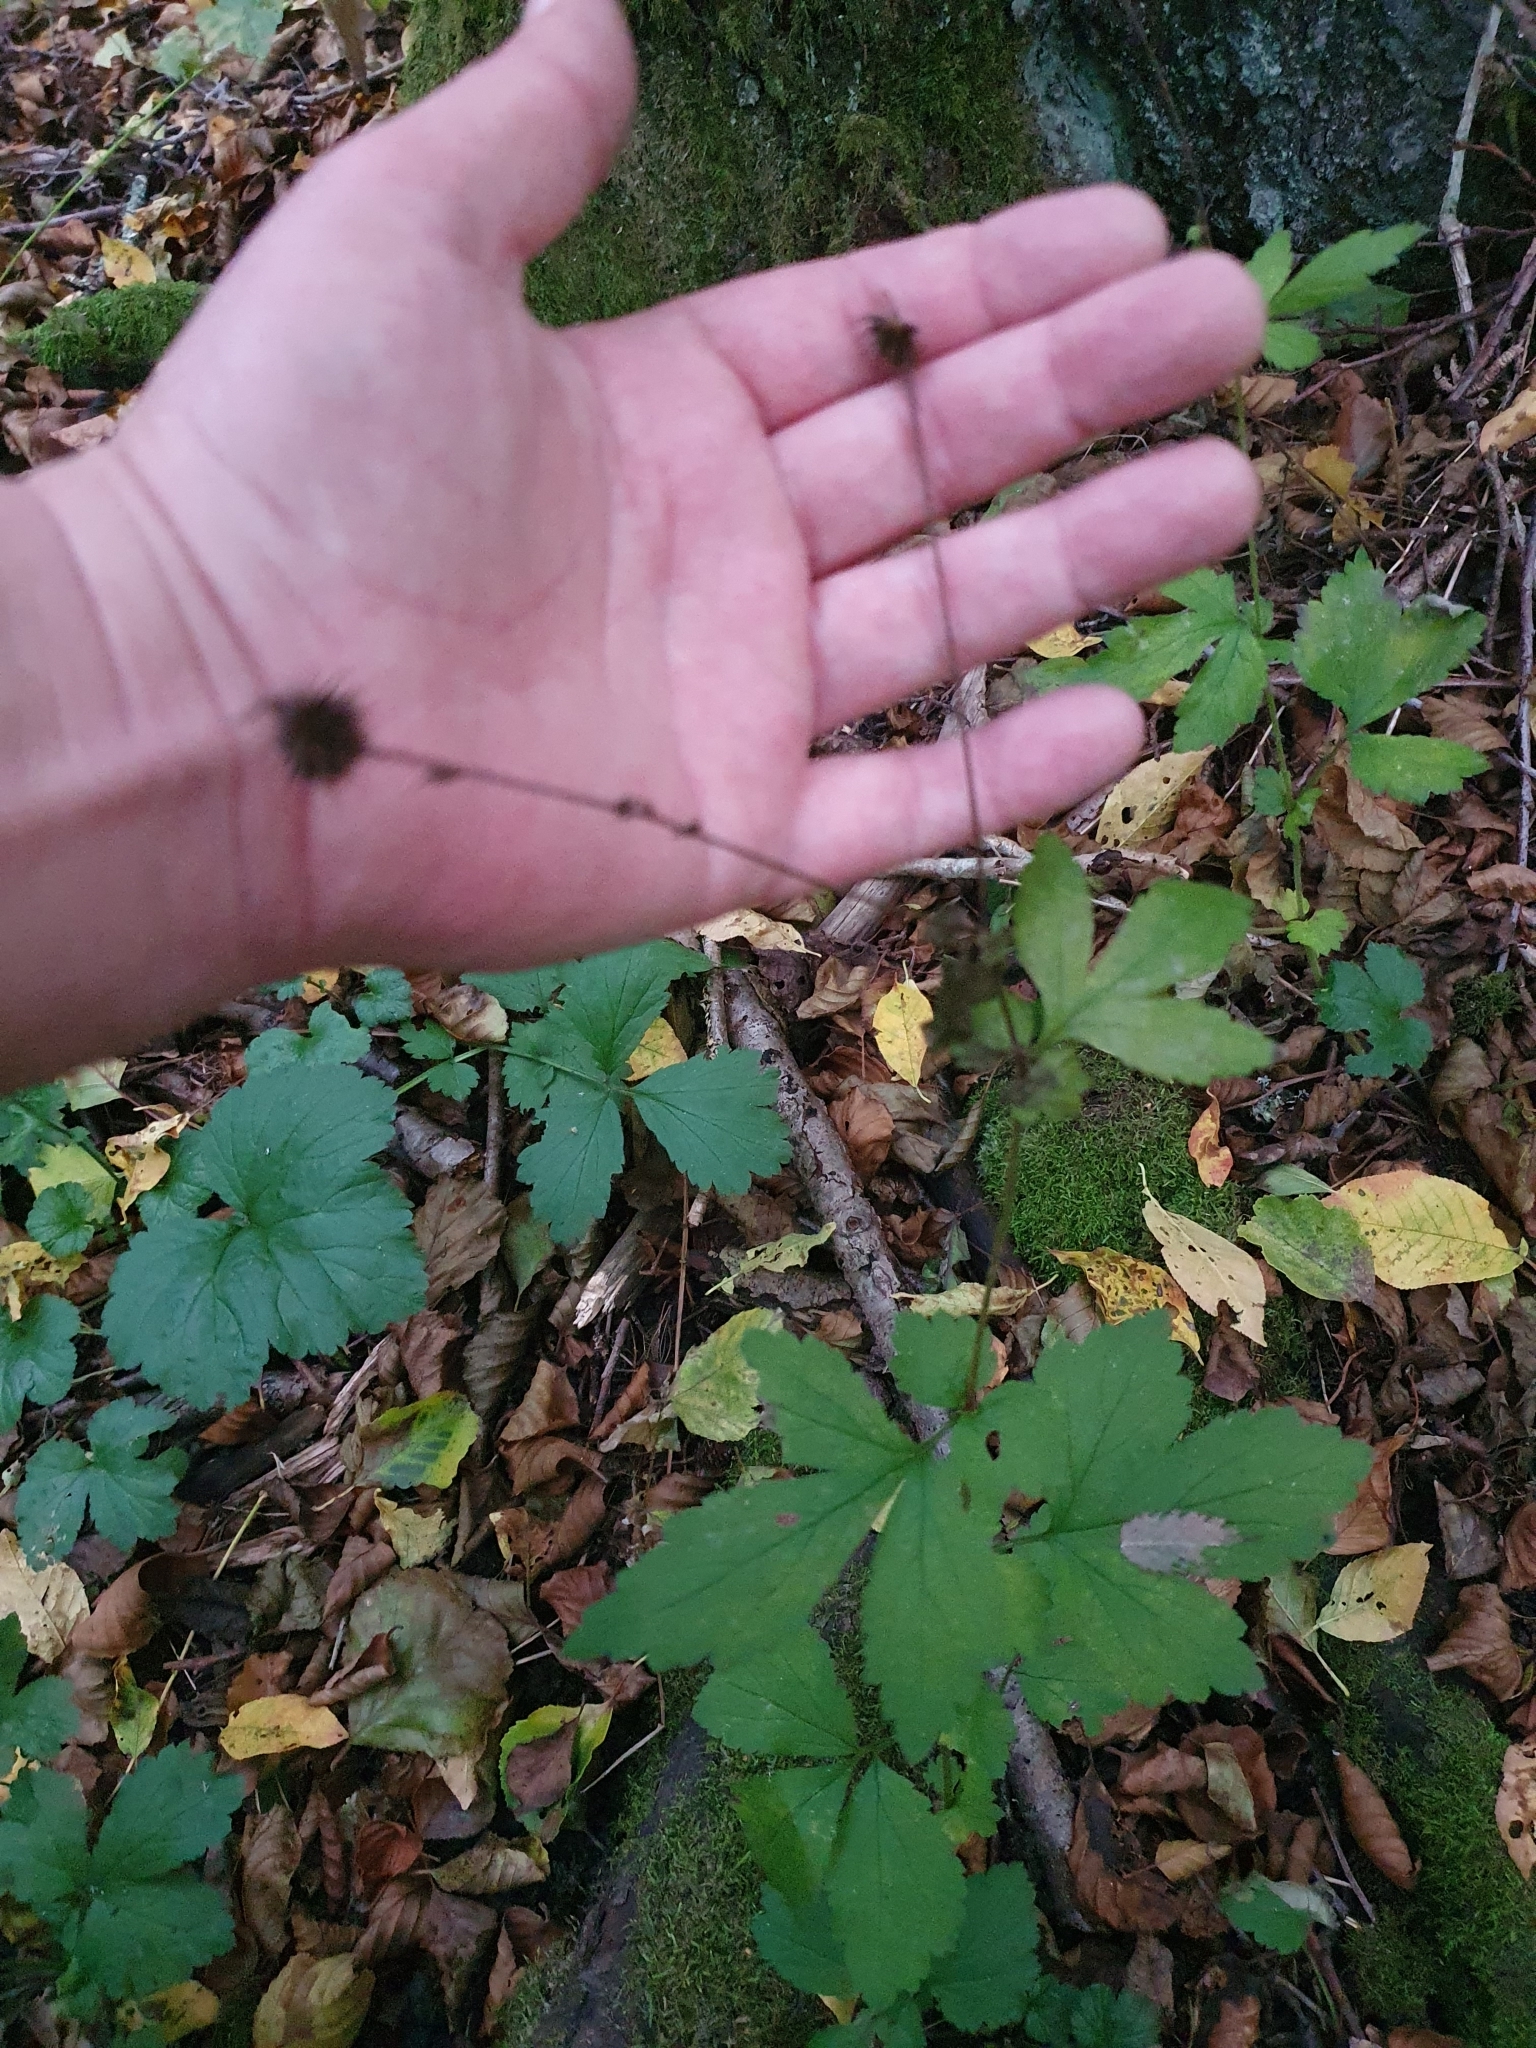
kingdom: Plantae
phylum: Tracheophyta
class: Magnoliopsida
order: Rosales
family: Rosaceae
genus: Geum
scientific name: Geum urbanum
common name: Wood avens
